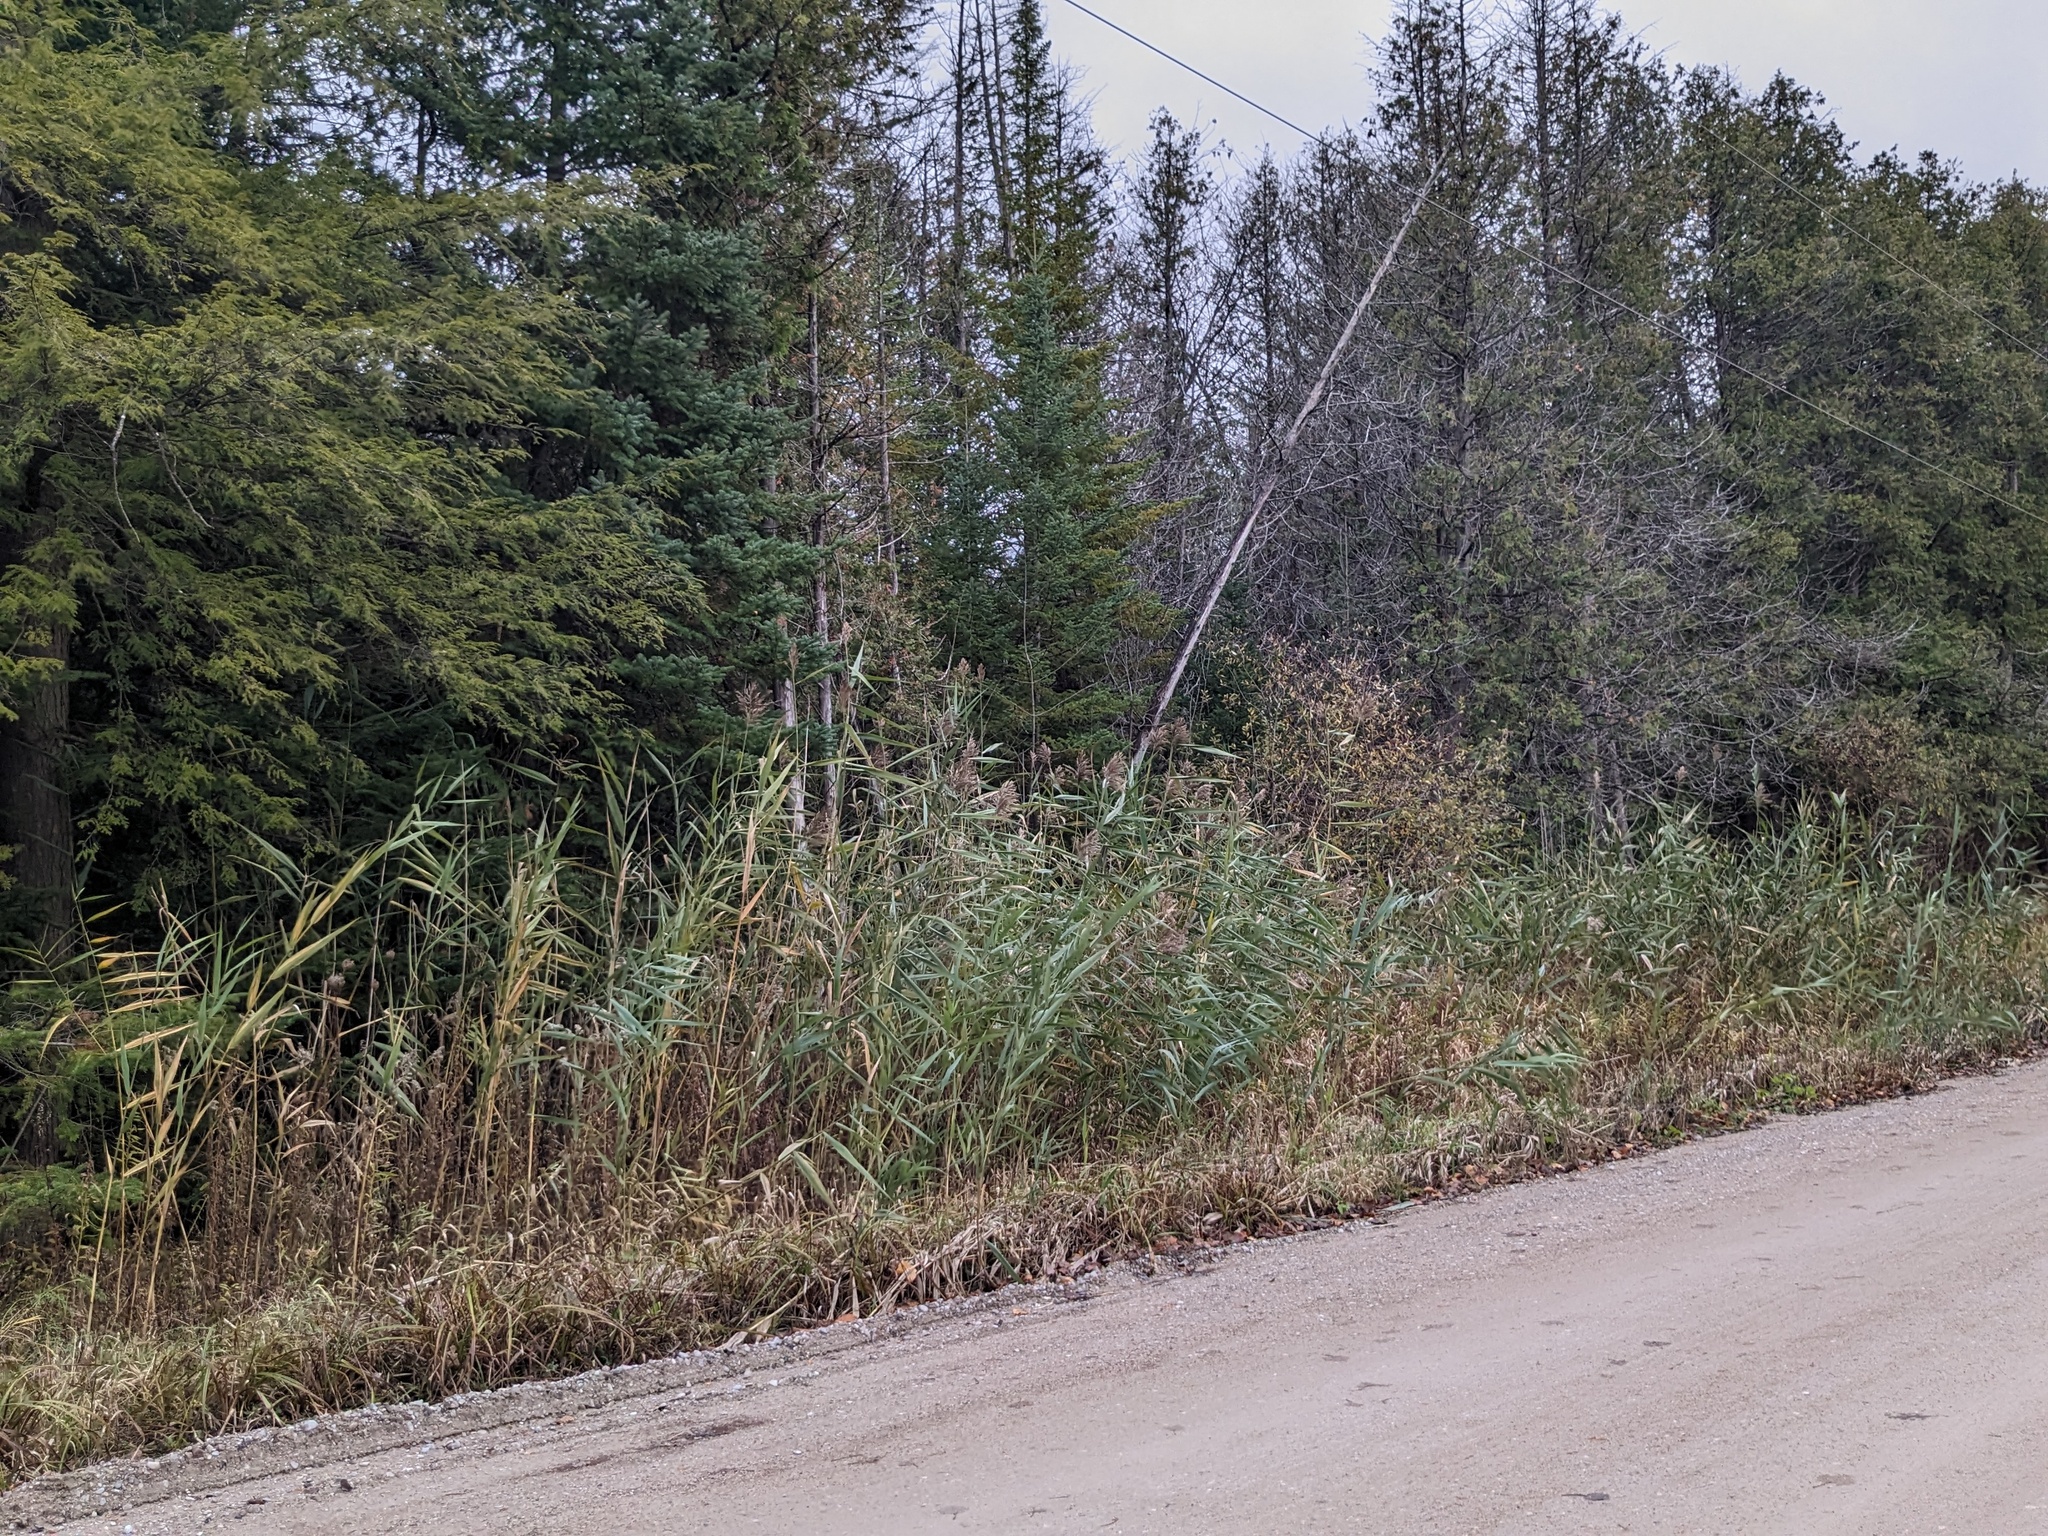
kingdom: Plantae
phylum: Tracheophyta
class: Liliopsida
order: Poales
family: Poaceae
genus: Phragmites
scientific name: Phragmites australis
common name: Common reed
